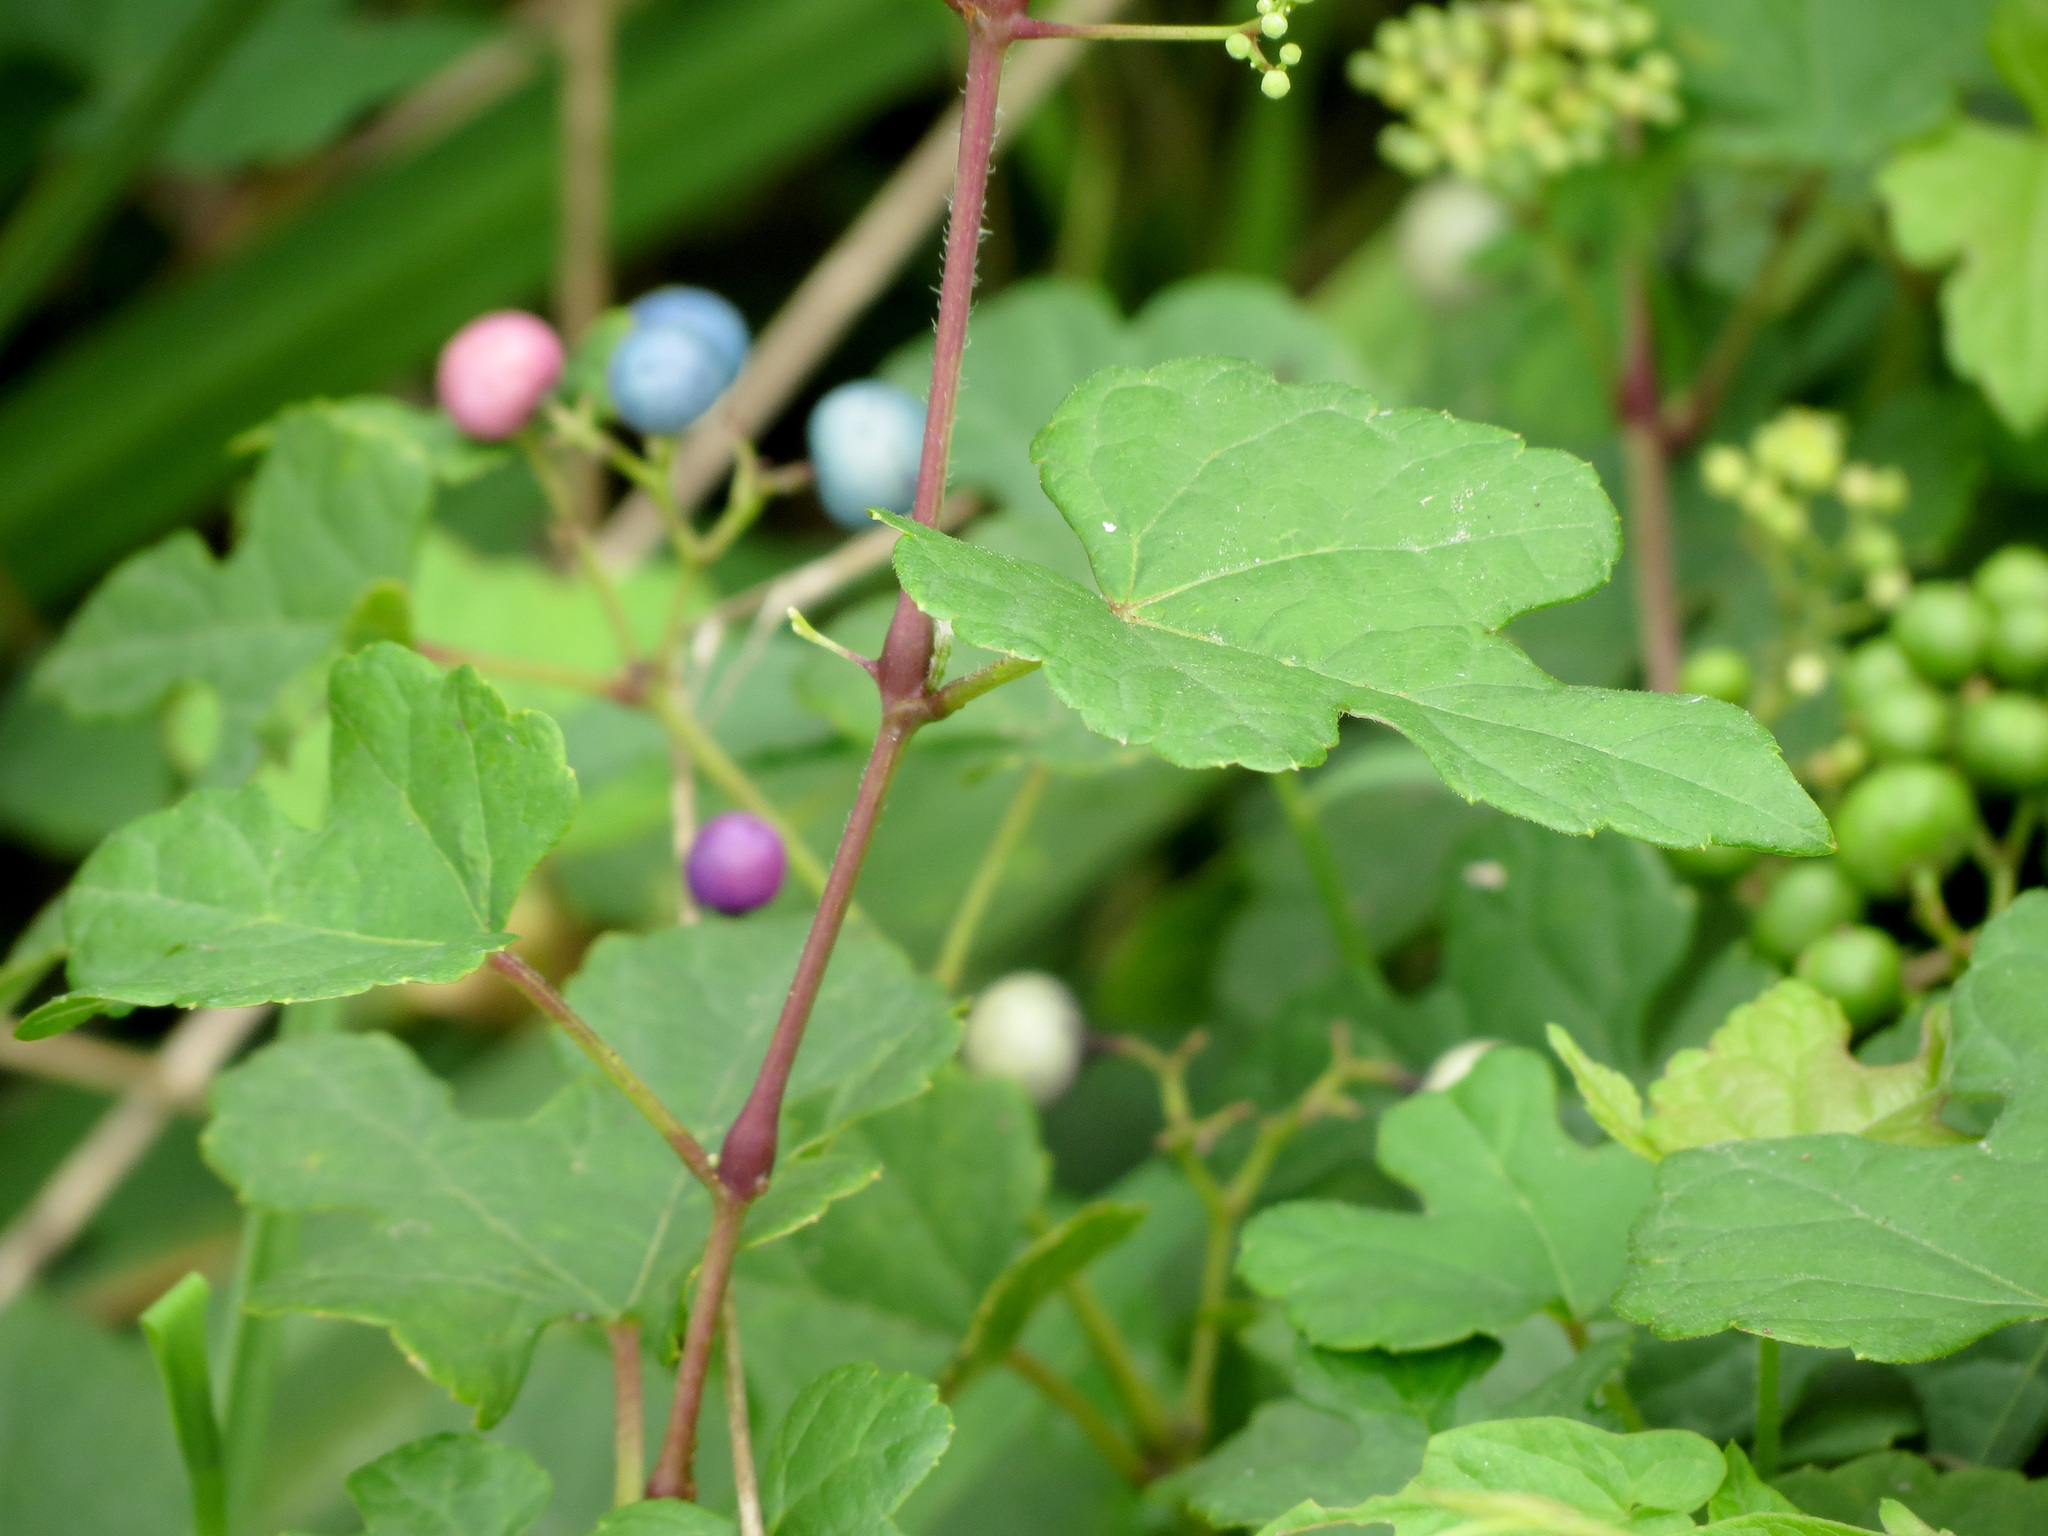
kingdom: Plantae
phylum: Tracheophyta
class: Magnoliopsida
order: Vitales
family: Vitaceae
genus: Ampelopsis
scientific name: Ampelopsis glandulosa
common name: Amur peppervine
